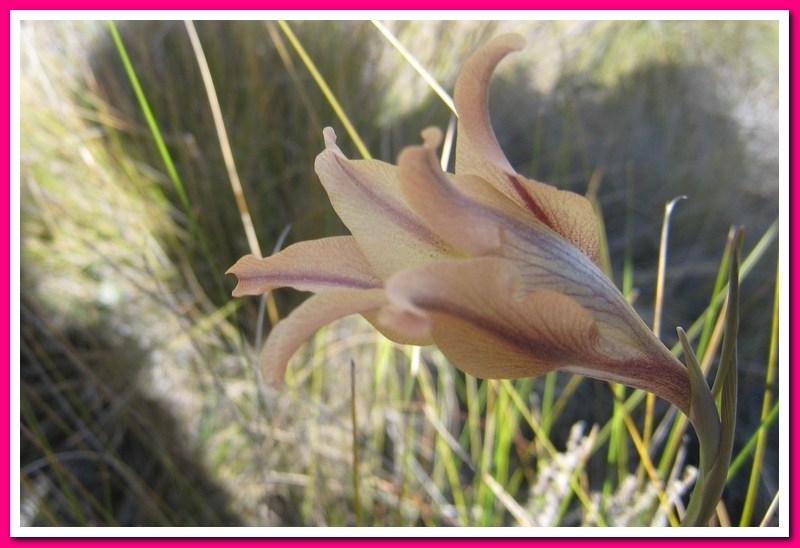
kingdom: Plantae
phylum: Tracheophyta
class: Liliopsida
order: Asparagales
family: Iridaceae
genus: Gladiolus
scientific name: Gladiolus liliaceus
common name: Large brown afrikaner
